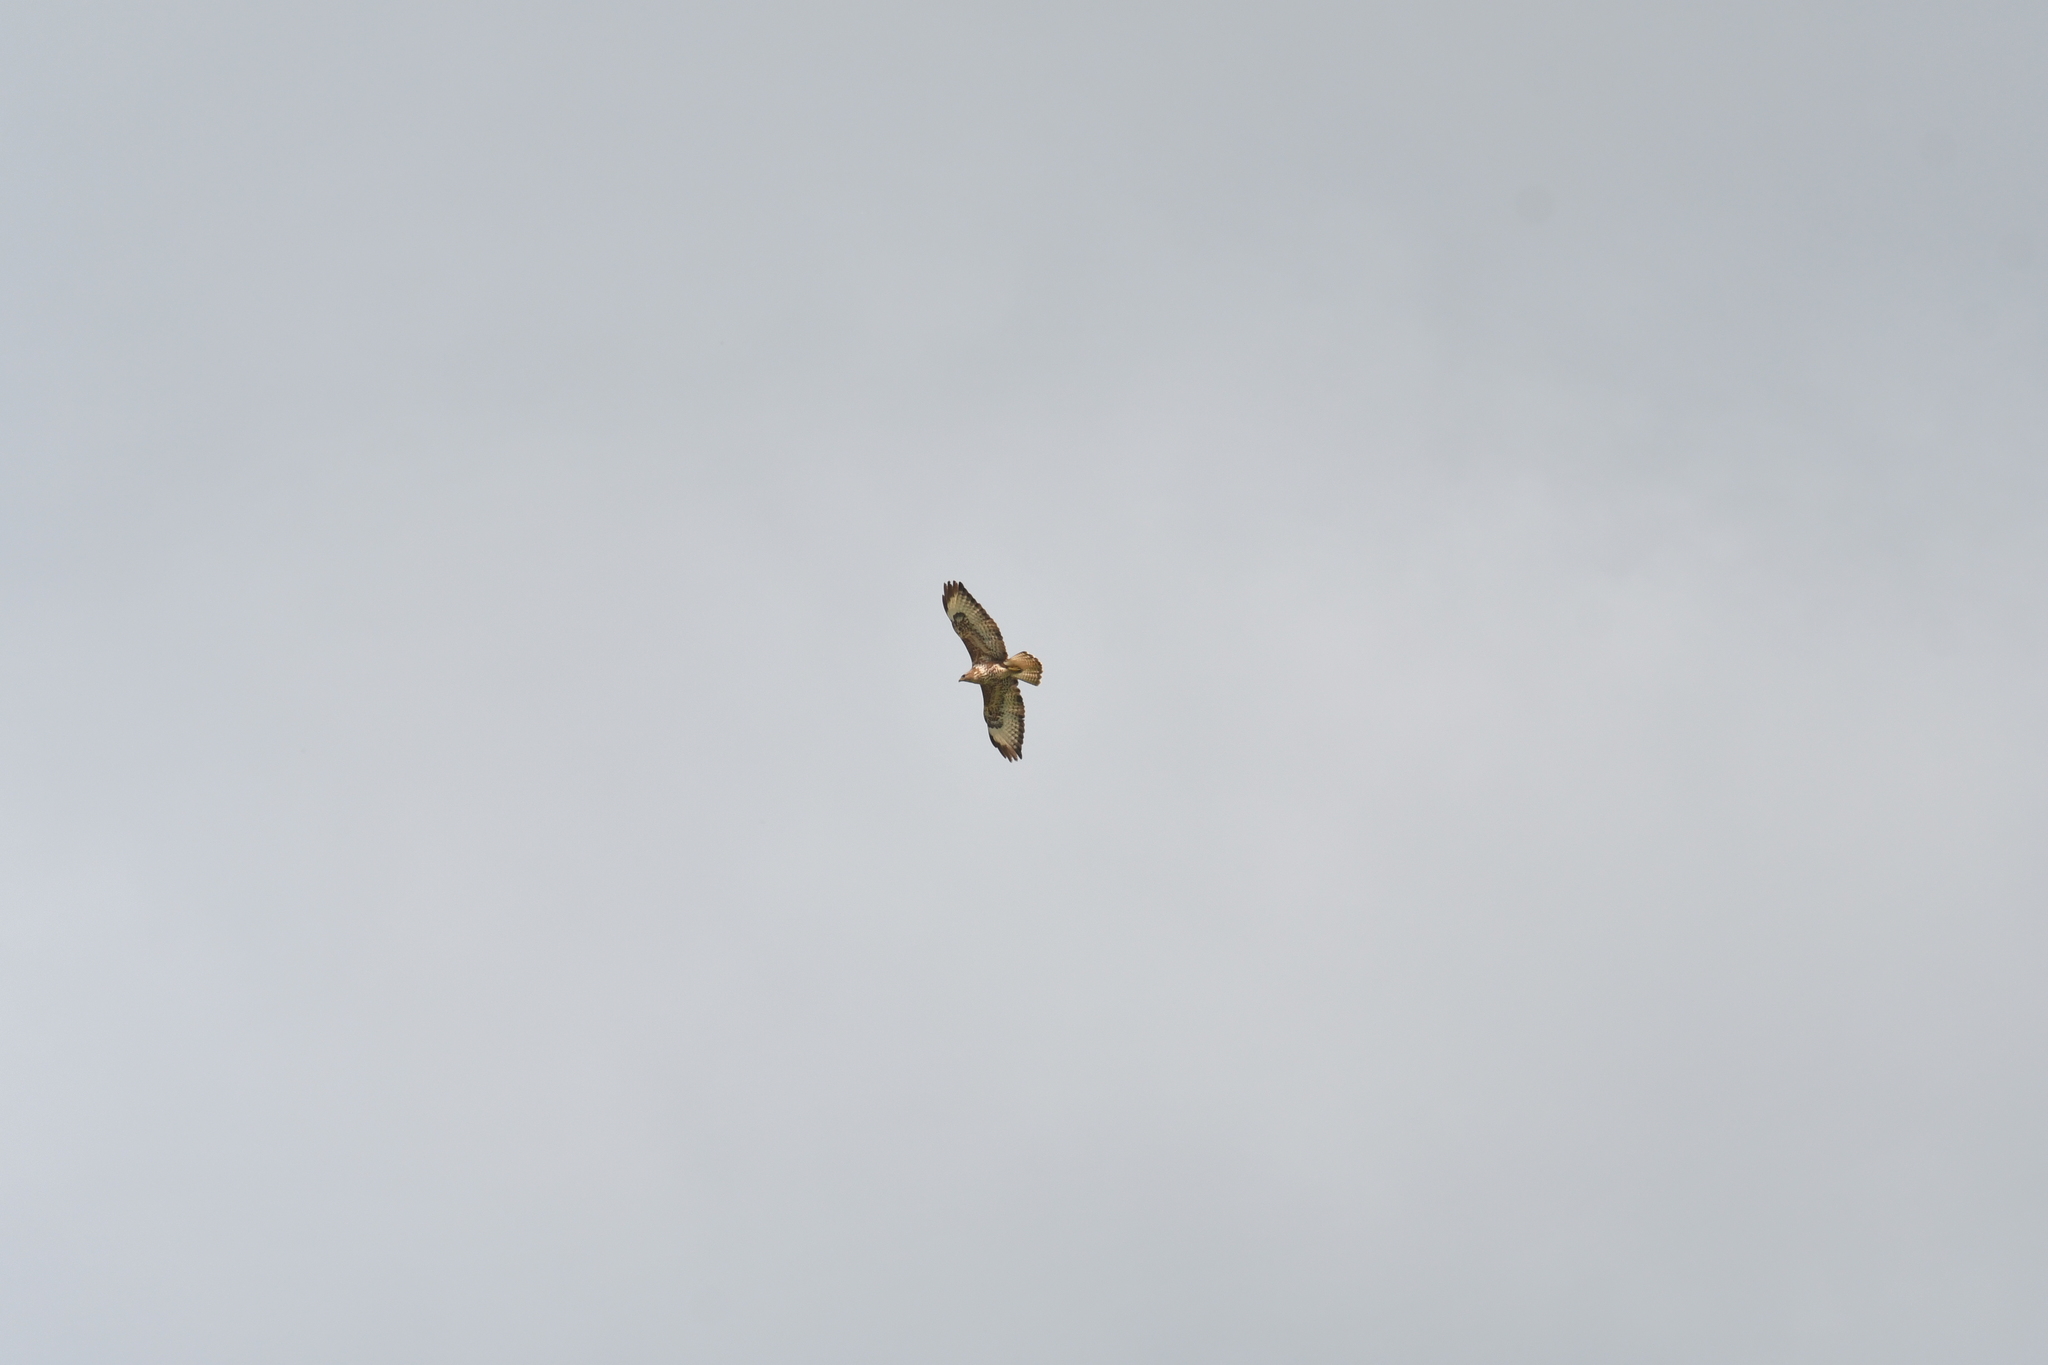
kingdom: Animalia
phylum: Chordata
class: Aves
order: Accipitriformes
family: Accipitridae
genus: Buteo
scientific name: Buteo buteo
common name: Common buzzard
